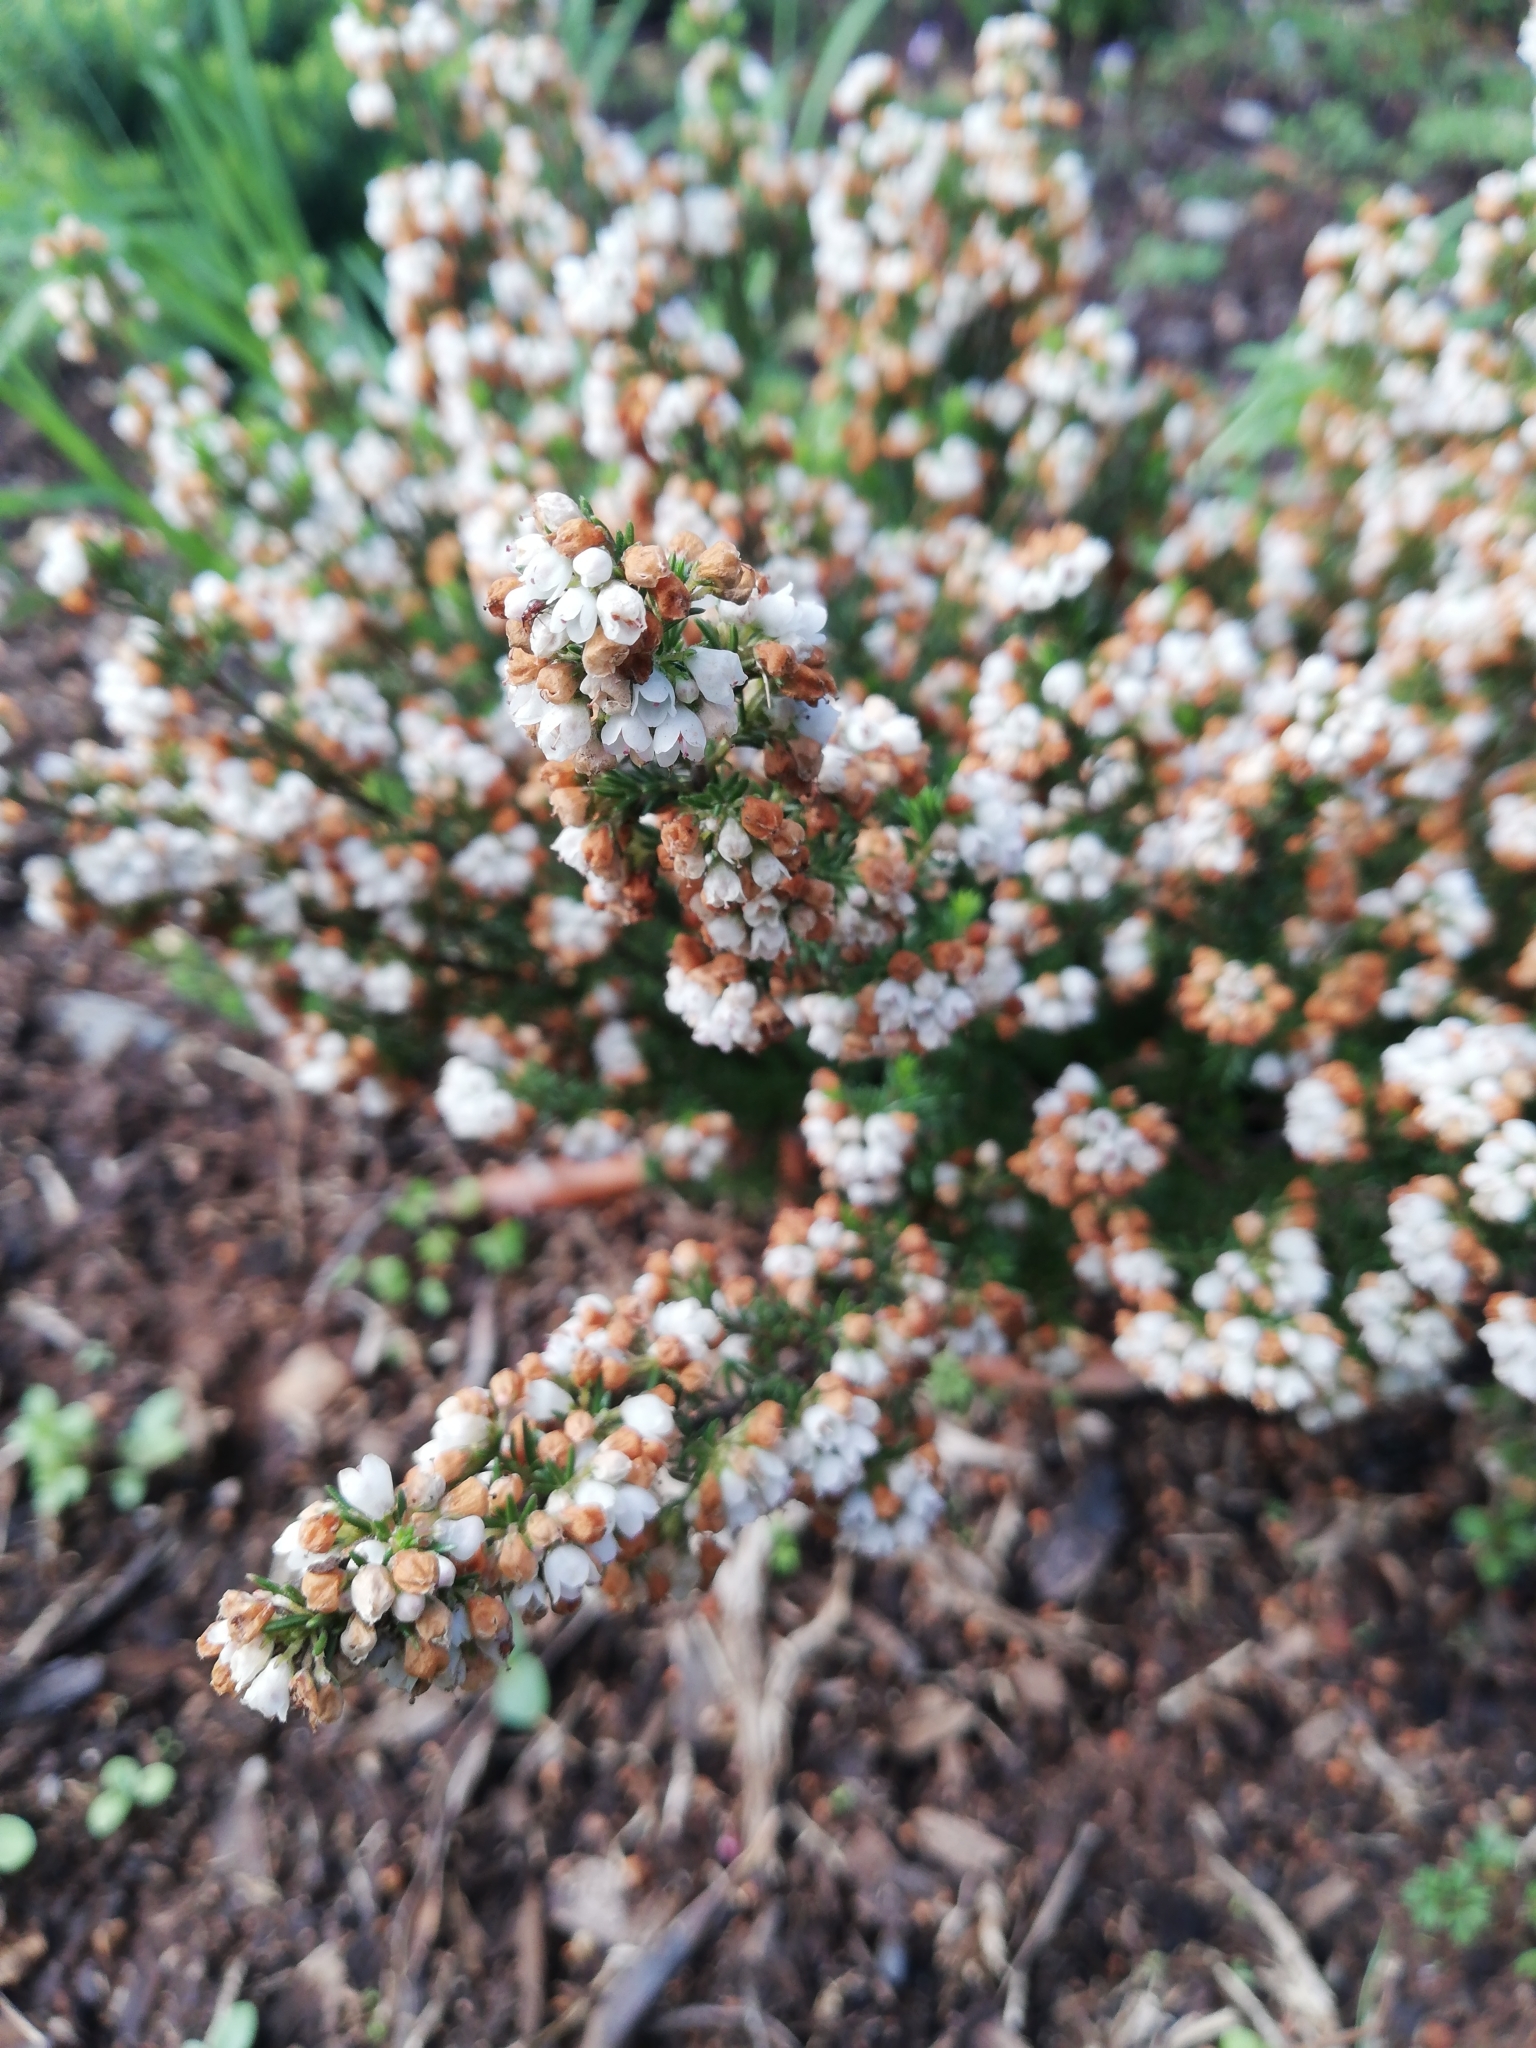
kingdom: Plantae
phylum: Tracheophyta
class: Magnoliopsida
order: Ericales
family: Ericaceae
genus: Erica
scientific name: Erica subdivaricata
